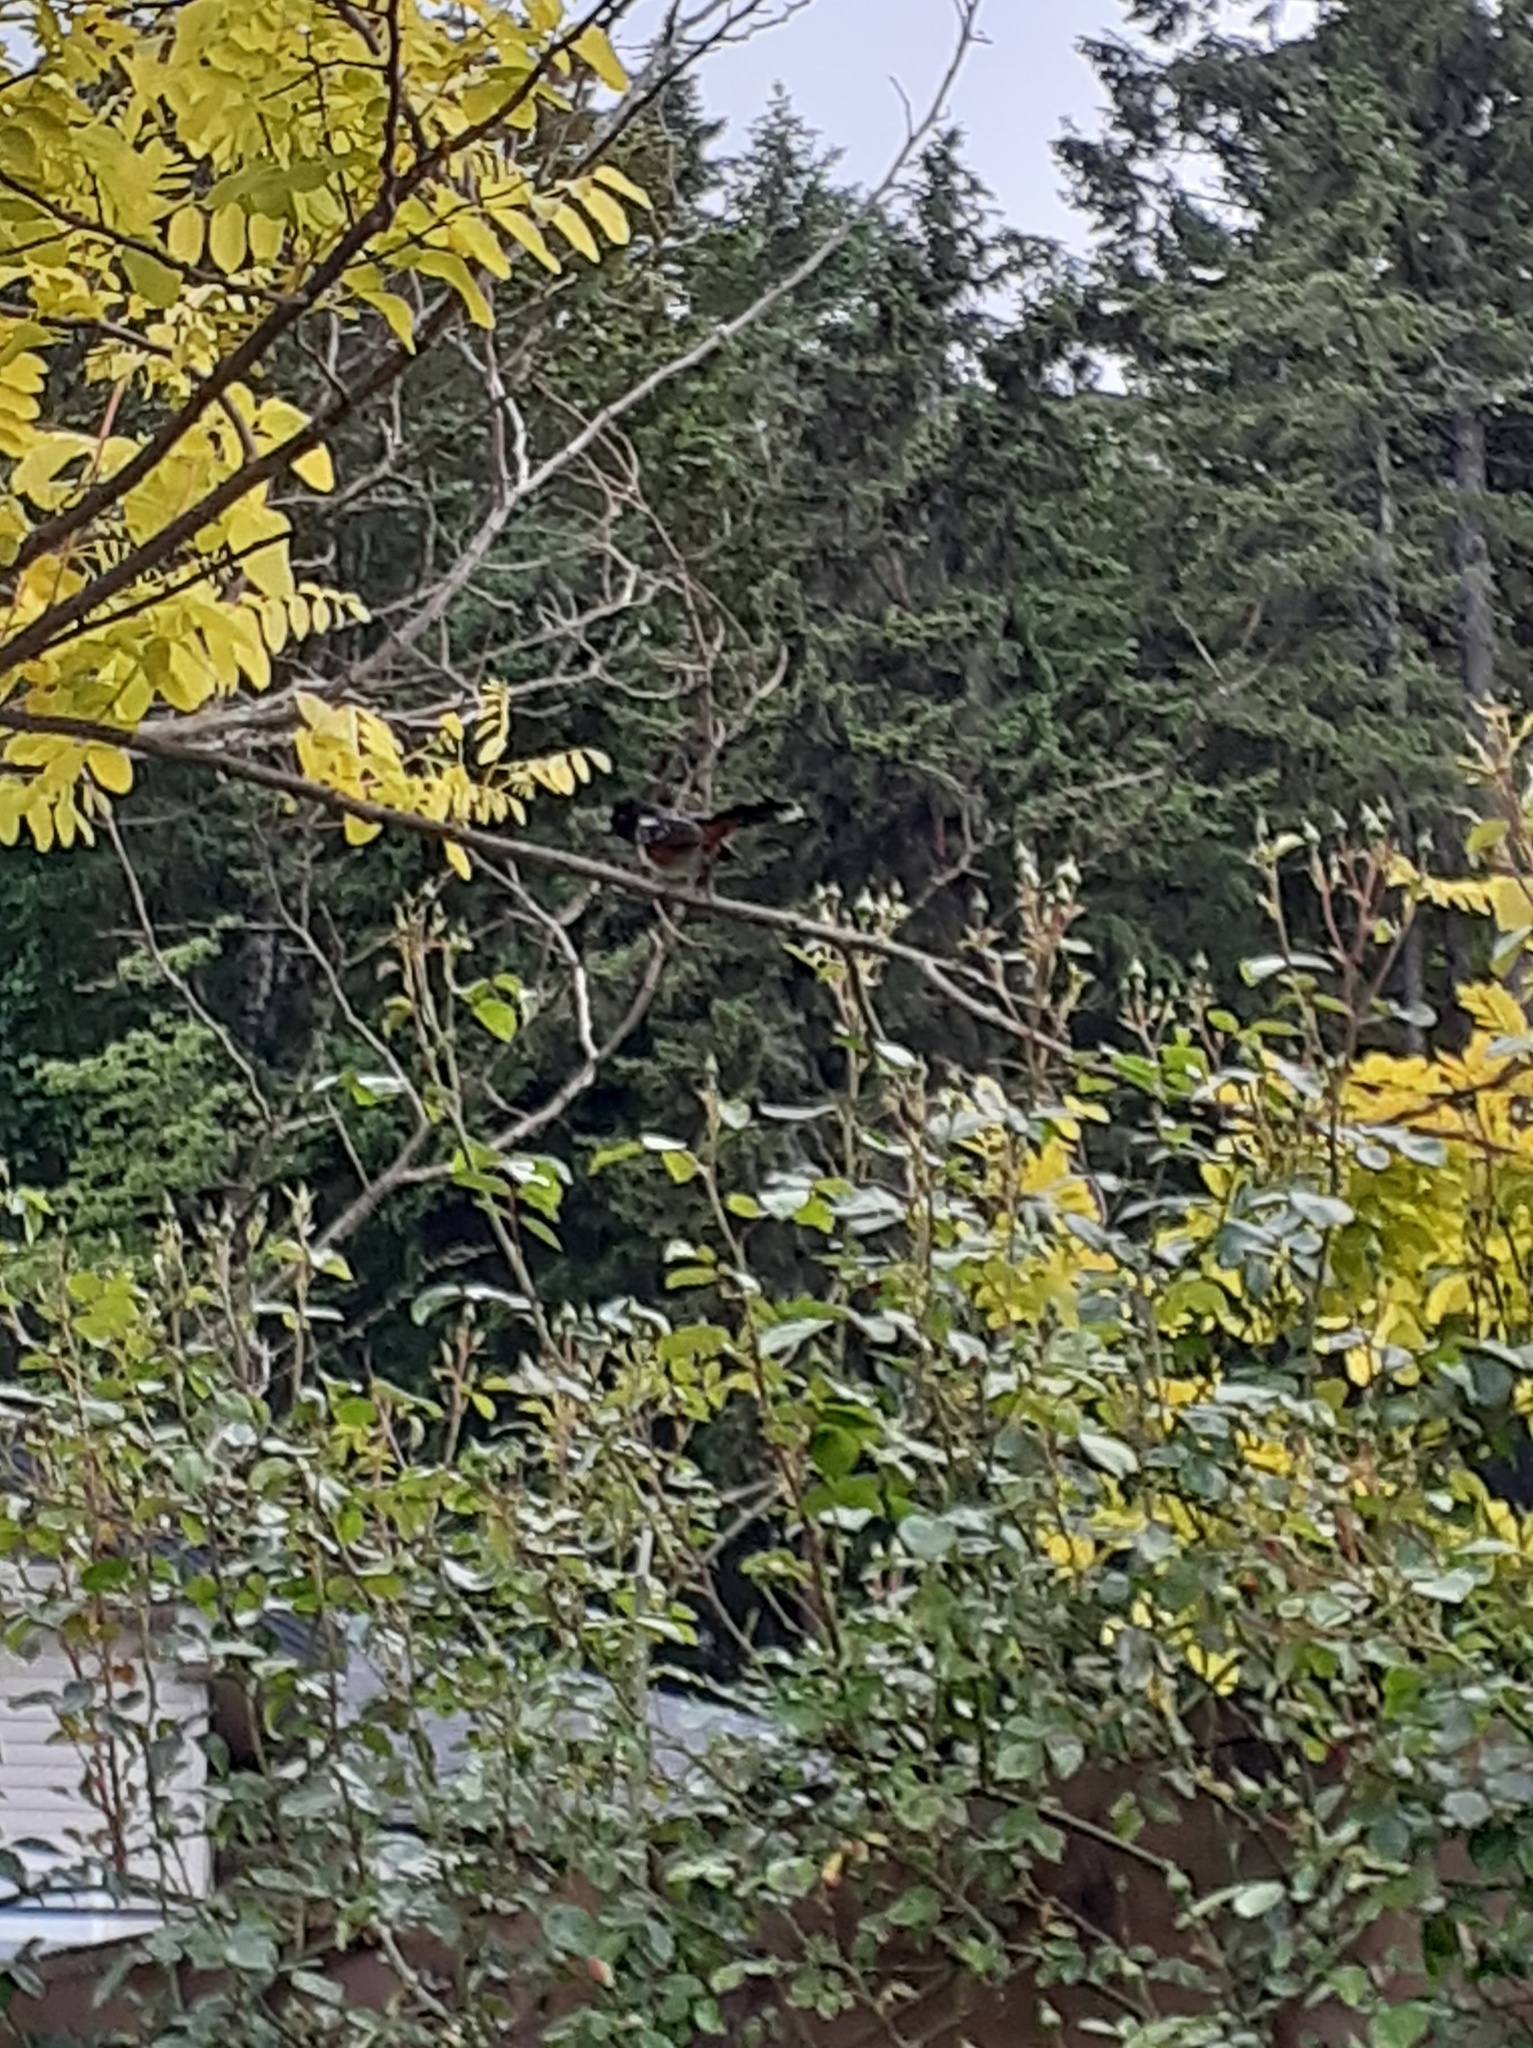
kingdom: Animalia
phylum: Chordata
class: Aves
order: Passeriformes
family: Passerellidae
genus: Pipilo
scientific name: Pipilo maculatus
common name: Spotted towhee
